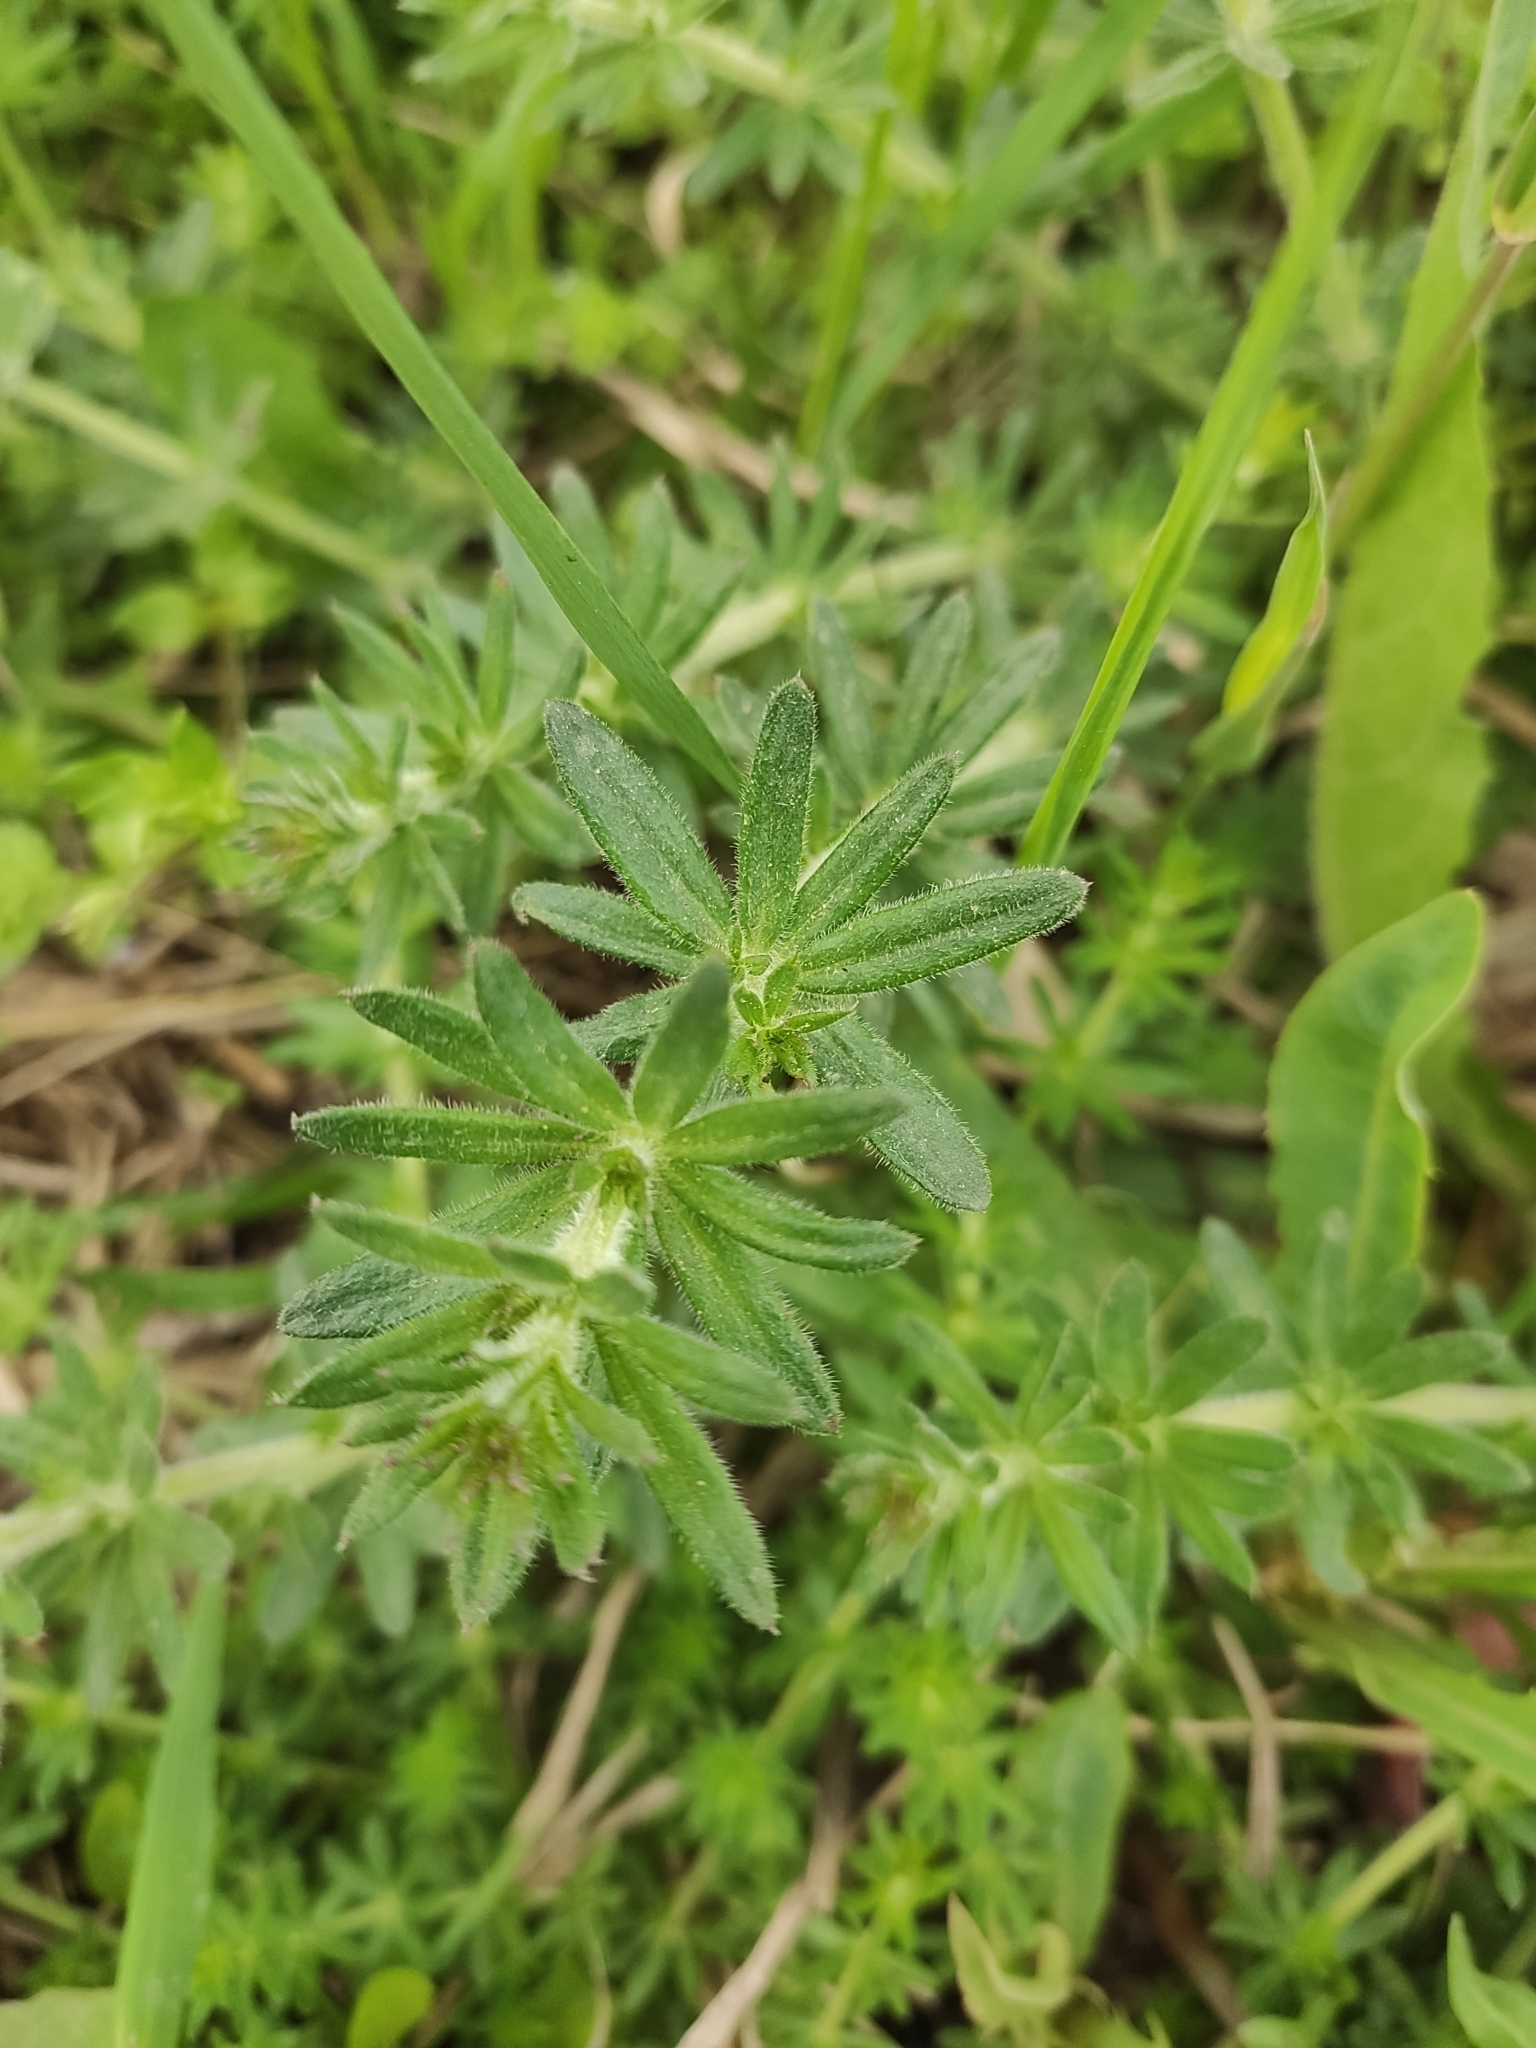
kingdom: Plantae
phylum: Tracheophyta
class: Magnoliopsida
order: Gentianales
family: Rubiaceae
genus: Galium
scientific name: Galium humifusum
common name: Spreading bedstraw
